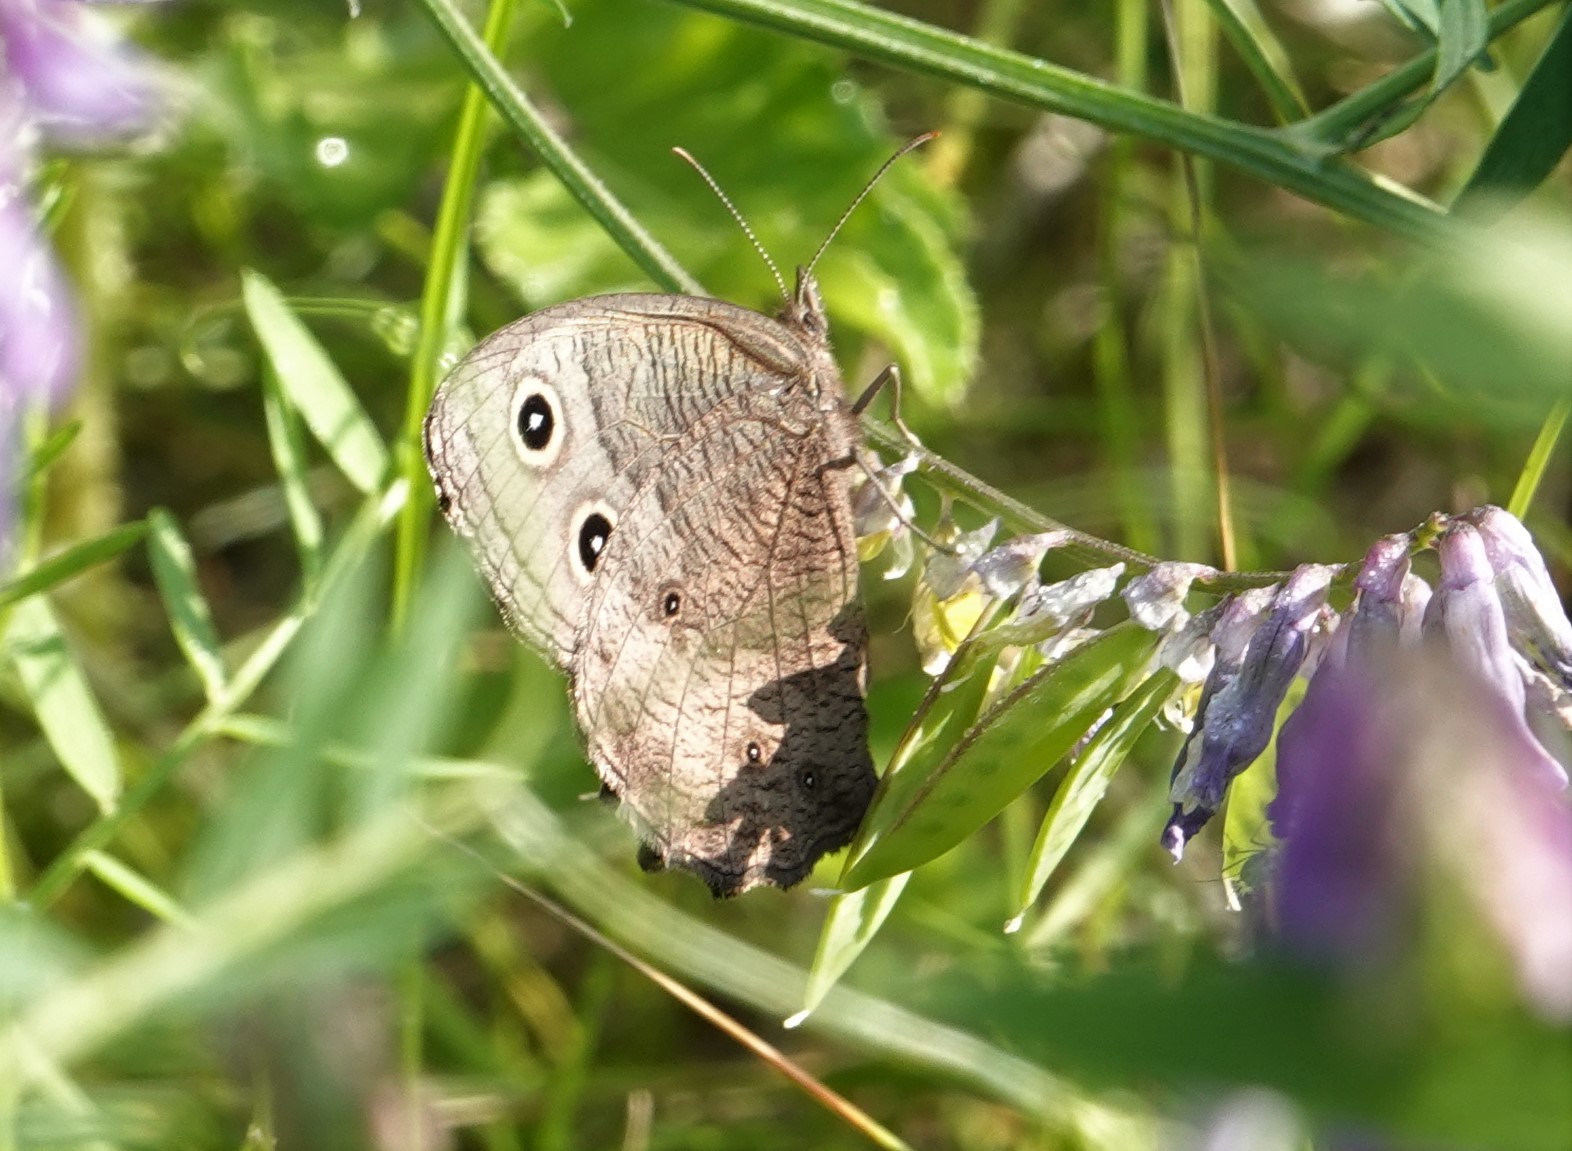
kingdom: Animalia
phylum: Arthropoda
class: Insecta
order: Lepidoptera
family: Nymphalidae
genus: Cercyonis
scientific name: Cercyonis pegala
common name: Common wood-nymph
